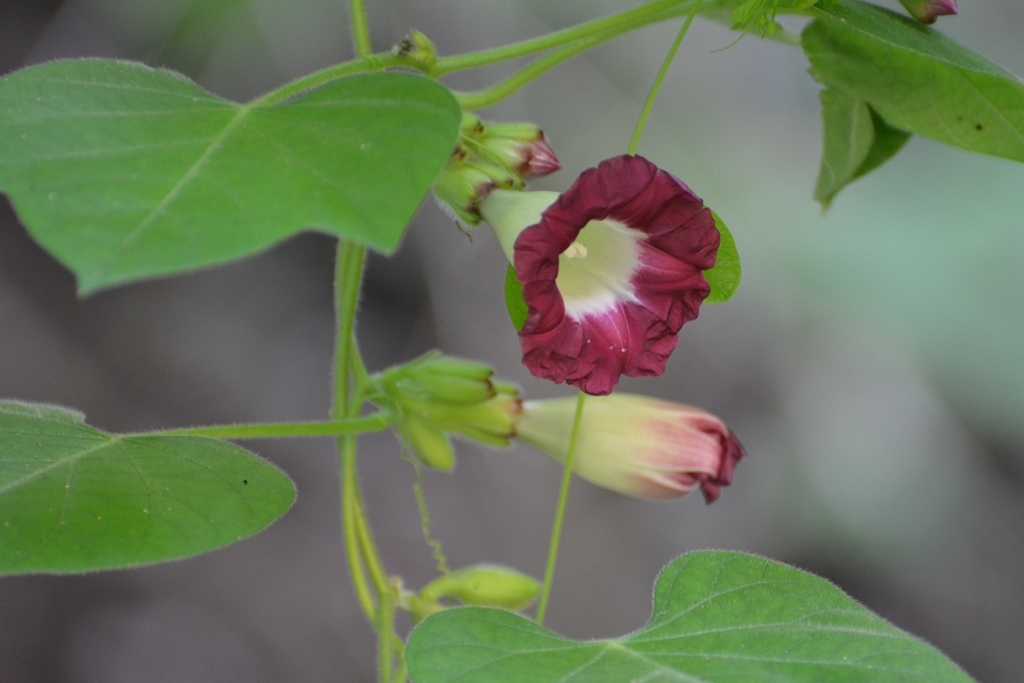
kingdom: Plantae
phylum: Tracheophyta
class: Magnoliopsida
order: Solanales
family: Convolvulaceae
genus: Ipomoea
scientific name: Ipomoea peteri
